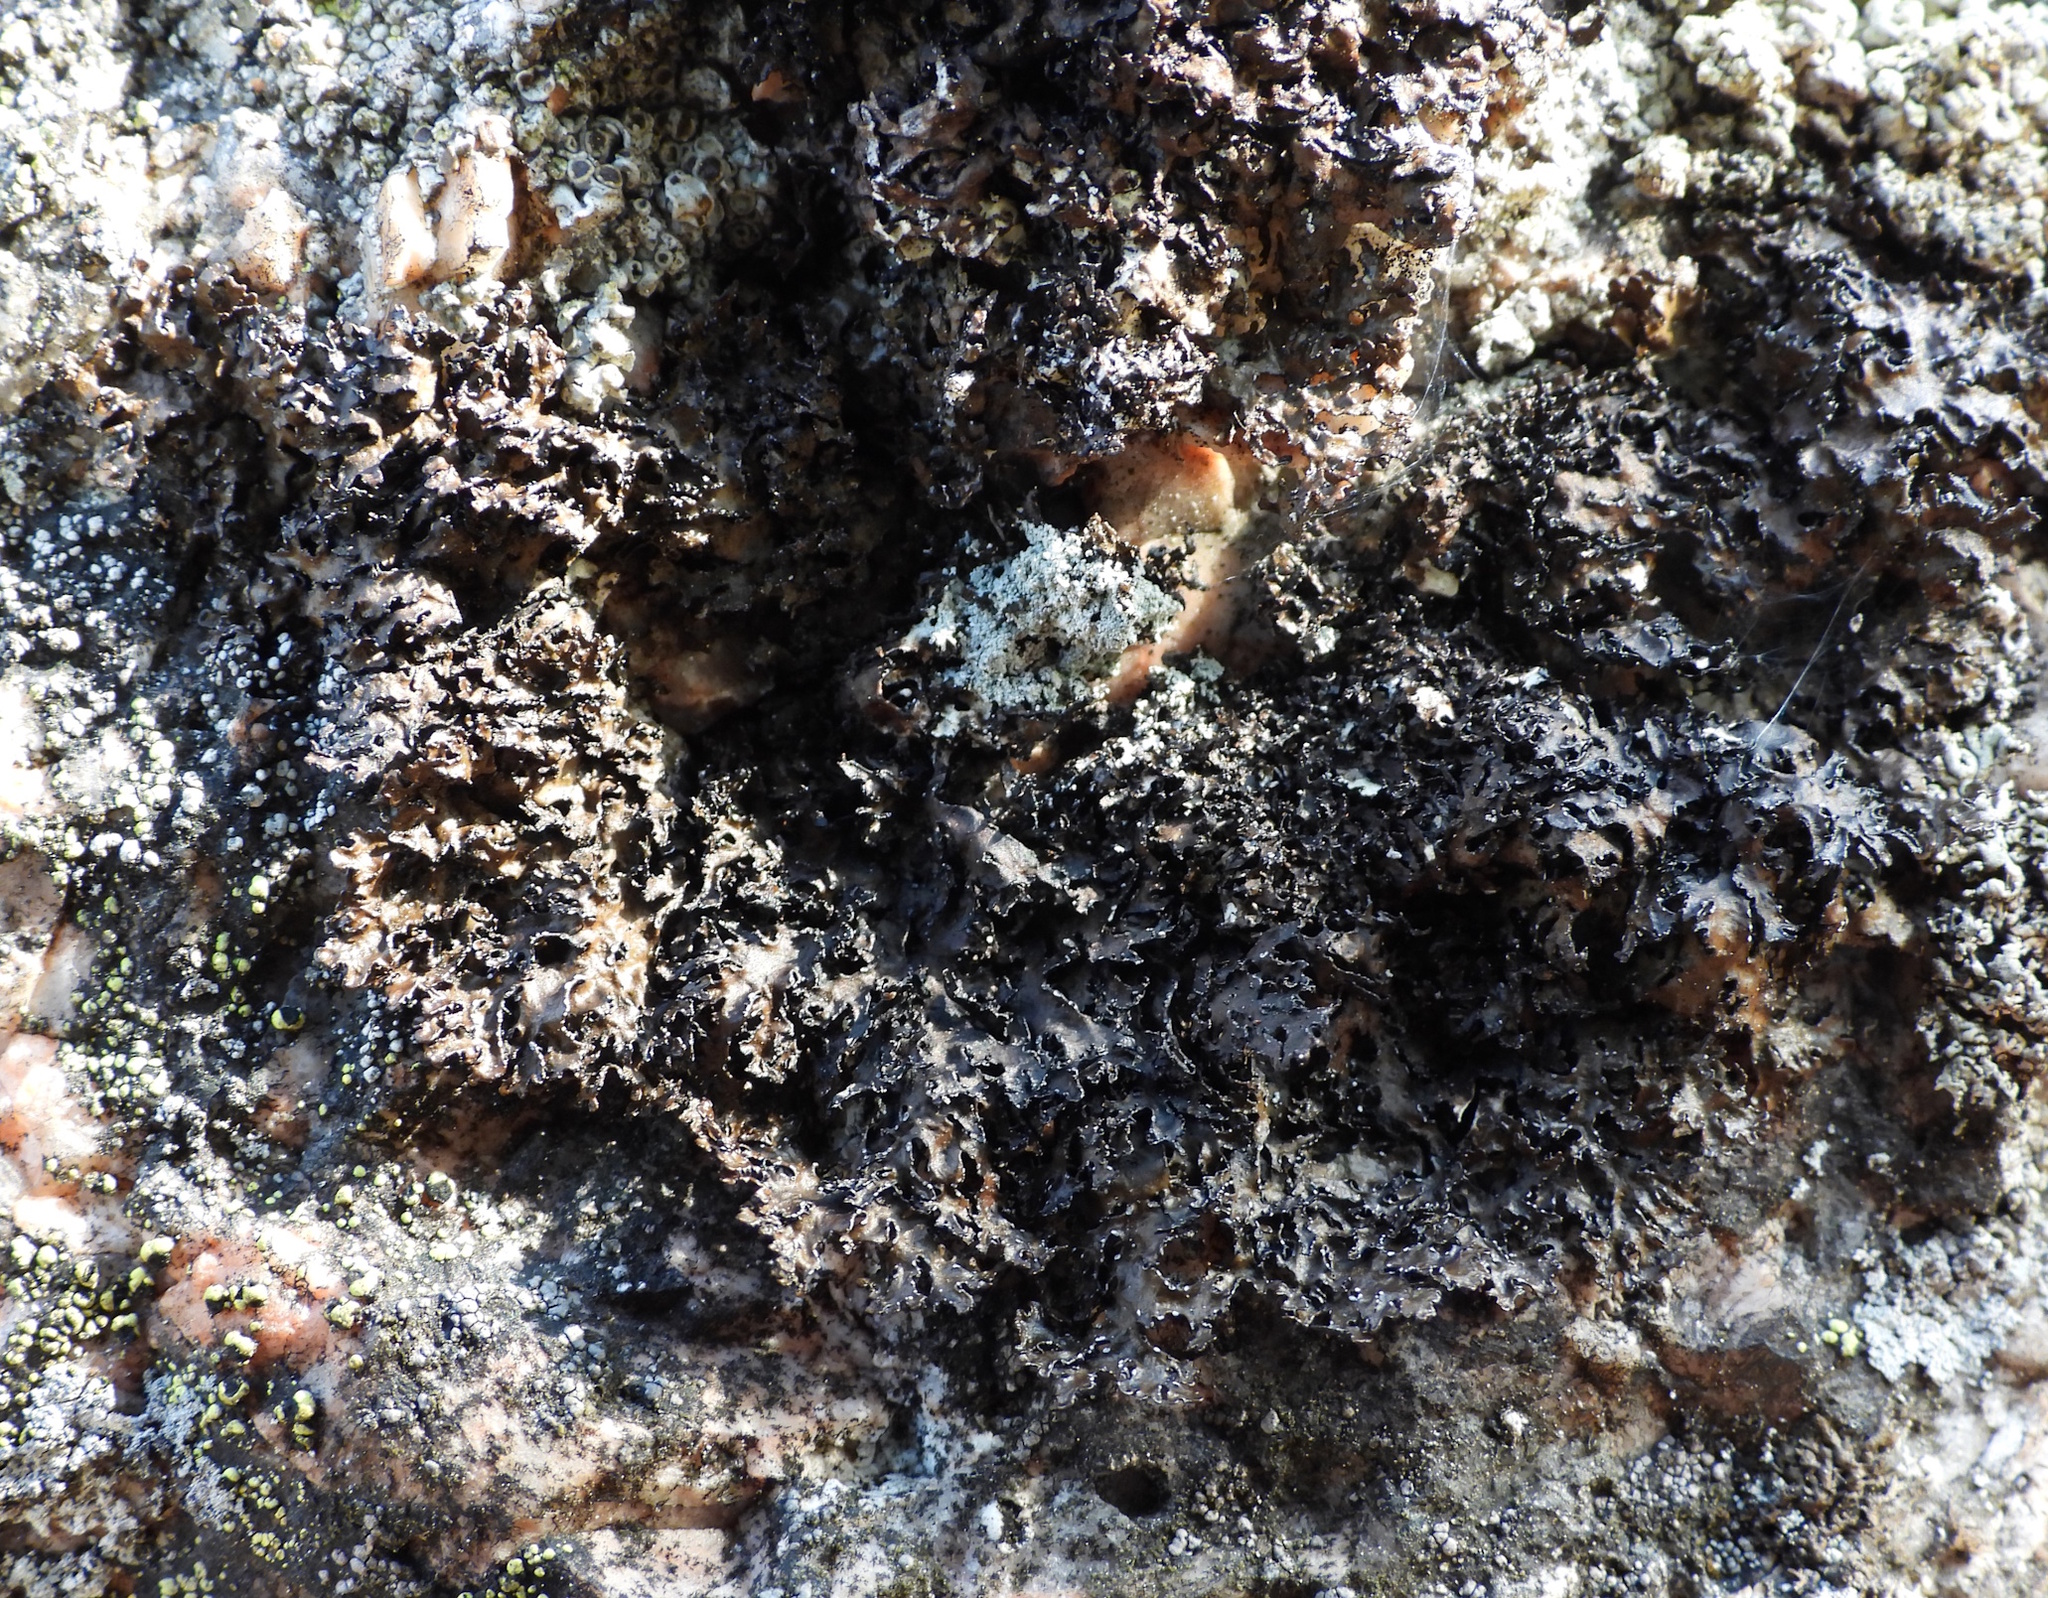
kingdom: Fungi
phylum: Ascomycota
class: Lecanoromycetes
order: Lecanorales
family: Parmeliaceae
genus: Melanelia
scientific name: Melanelia hepatizon
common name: Rimmed camouflage lichen
